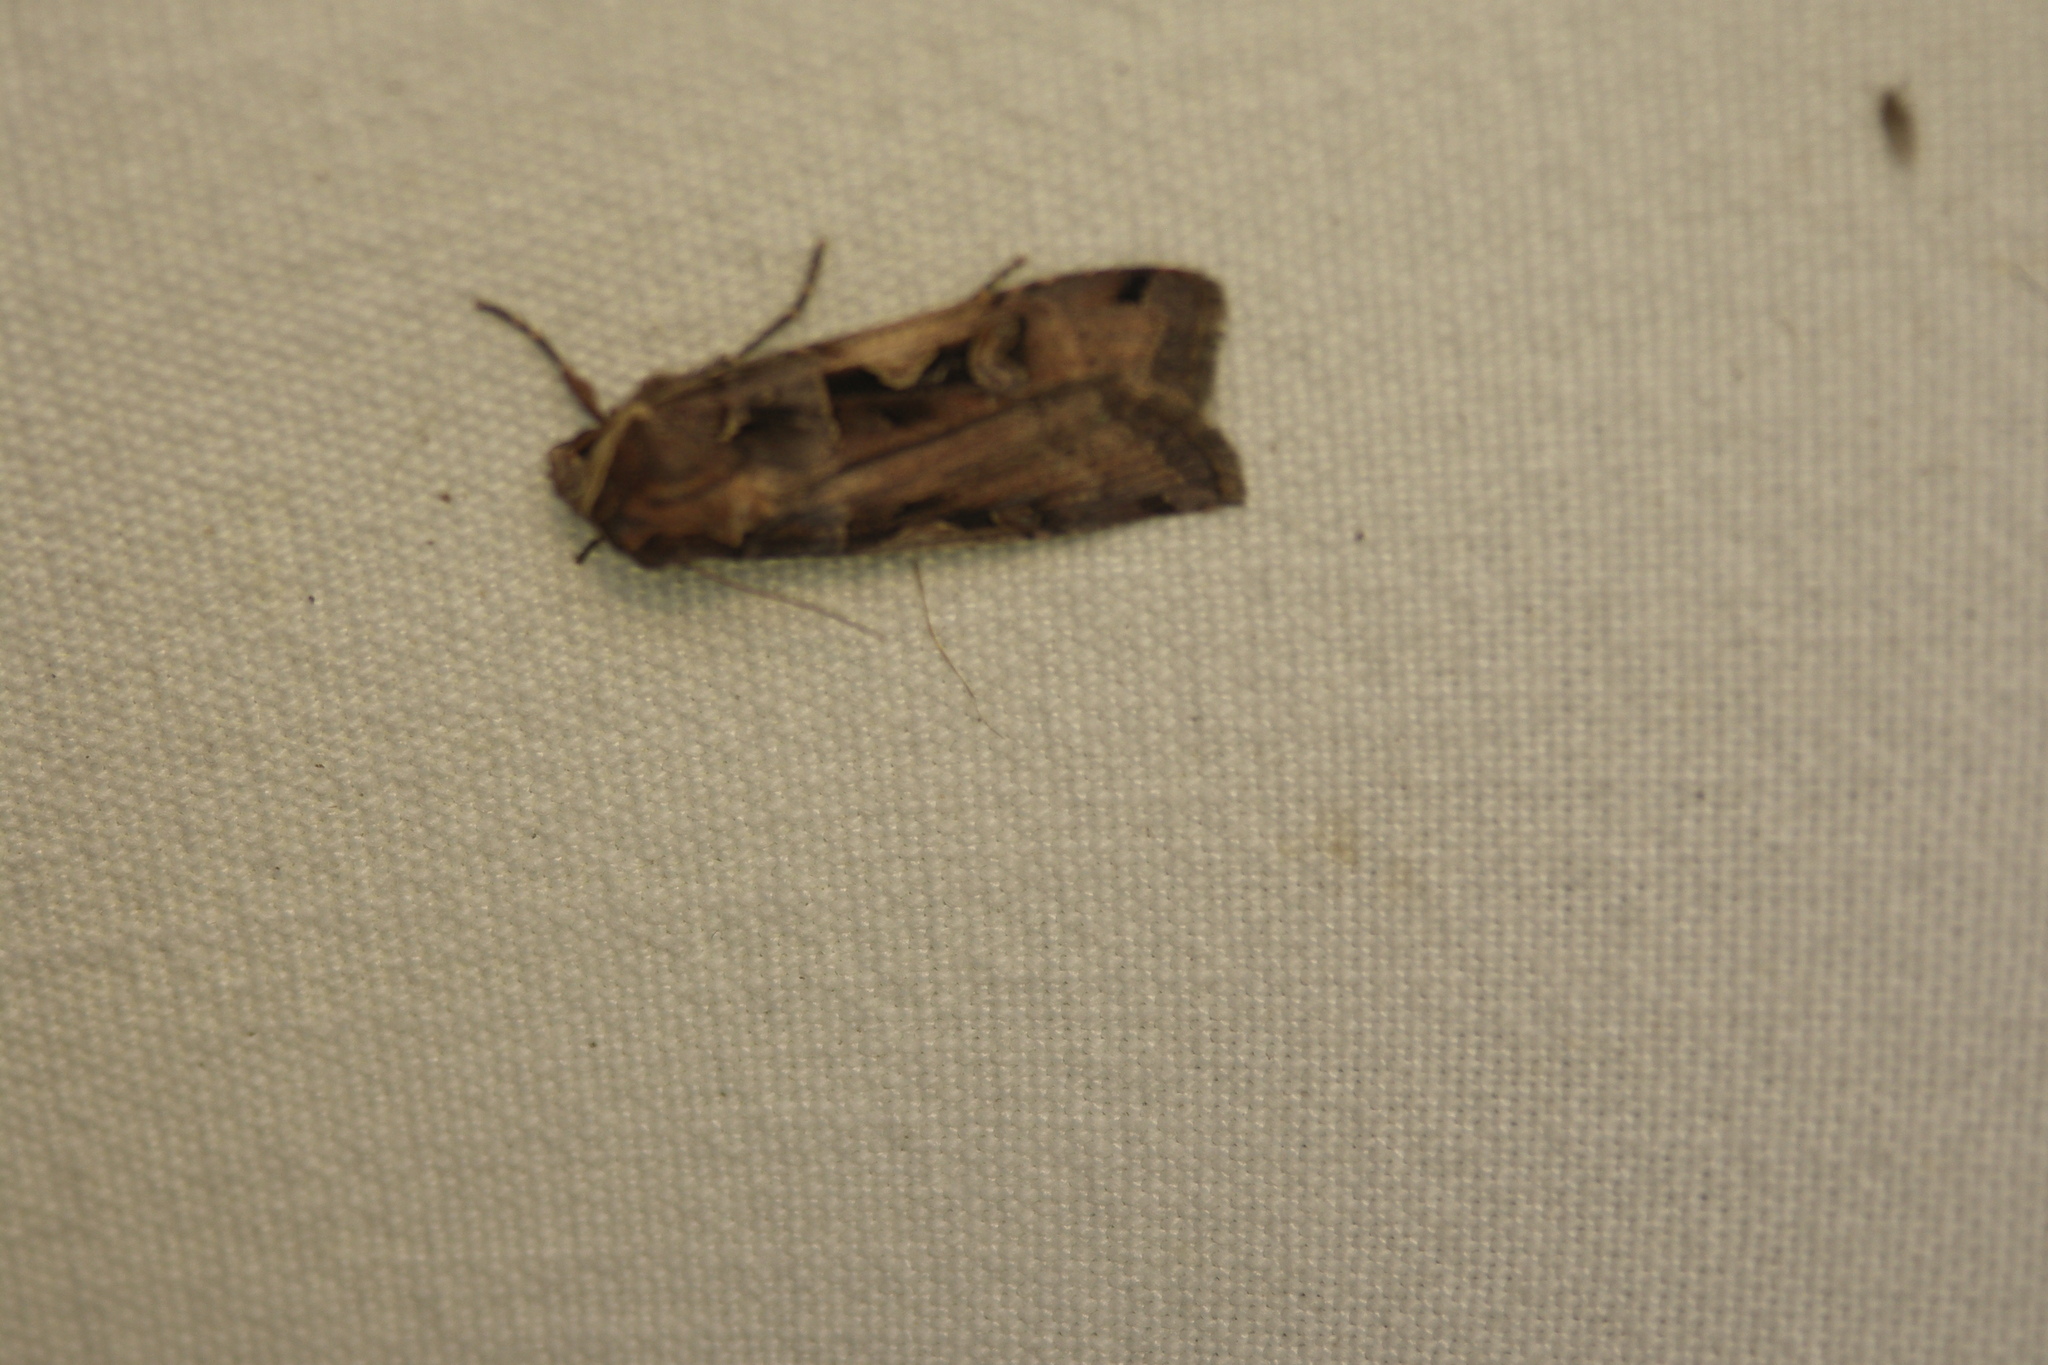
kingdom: Animalia
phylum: Arthropoda
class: Insecta
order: Lepidoptera
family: Noctuidae
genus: Xestia
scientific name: Xestia c-nigrum
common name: Setaceous hebrew character
